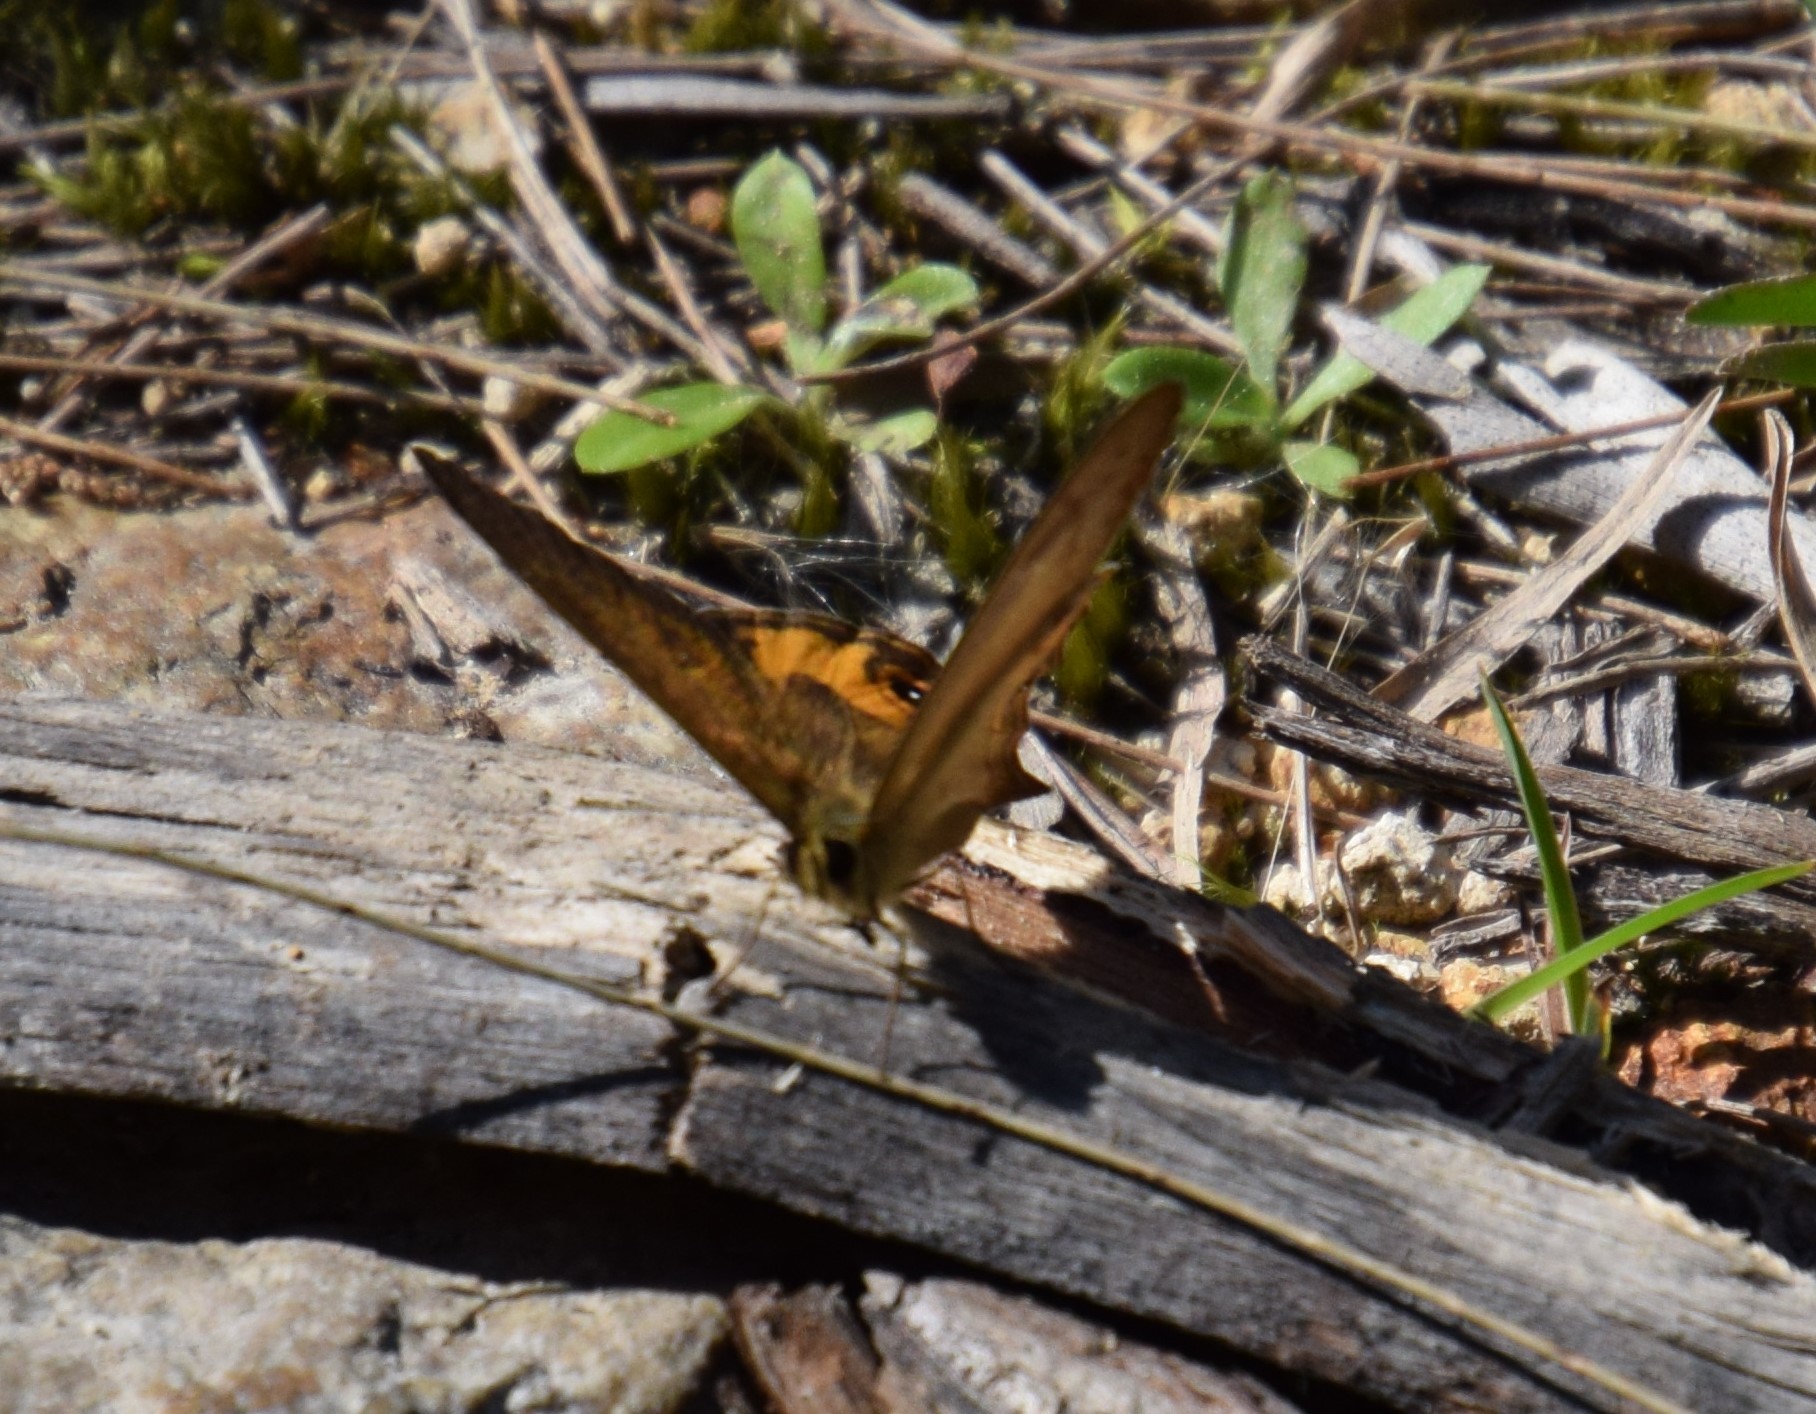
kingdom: Animalia
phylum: Arthropoda
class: Insecta
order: Lepidoptera
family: Nymphalidae
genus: Hypocysta
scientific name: Hypocysta metirius
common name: Brown ringlet
